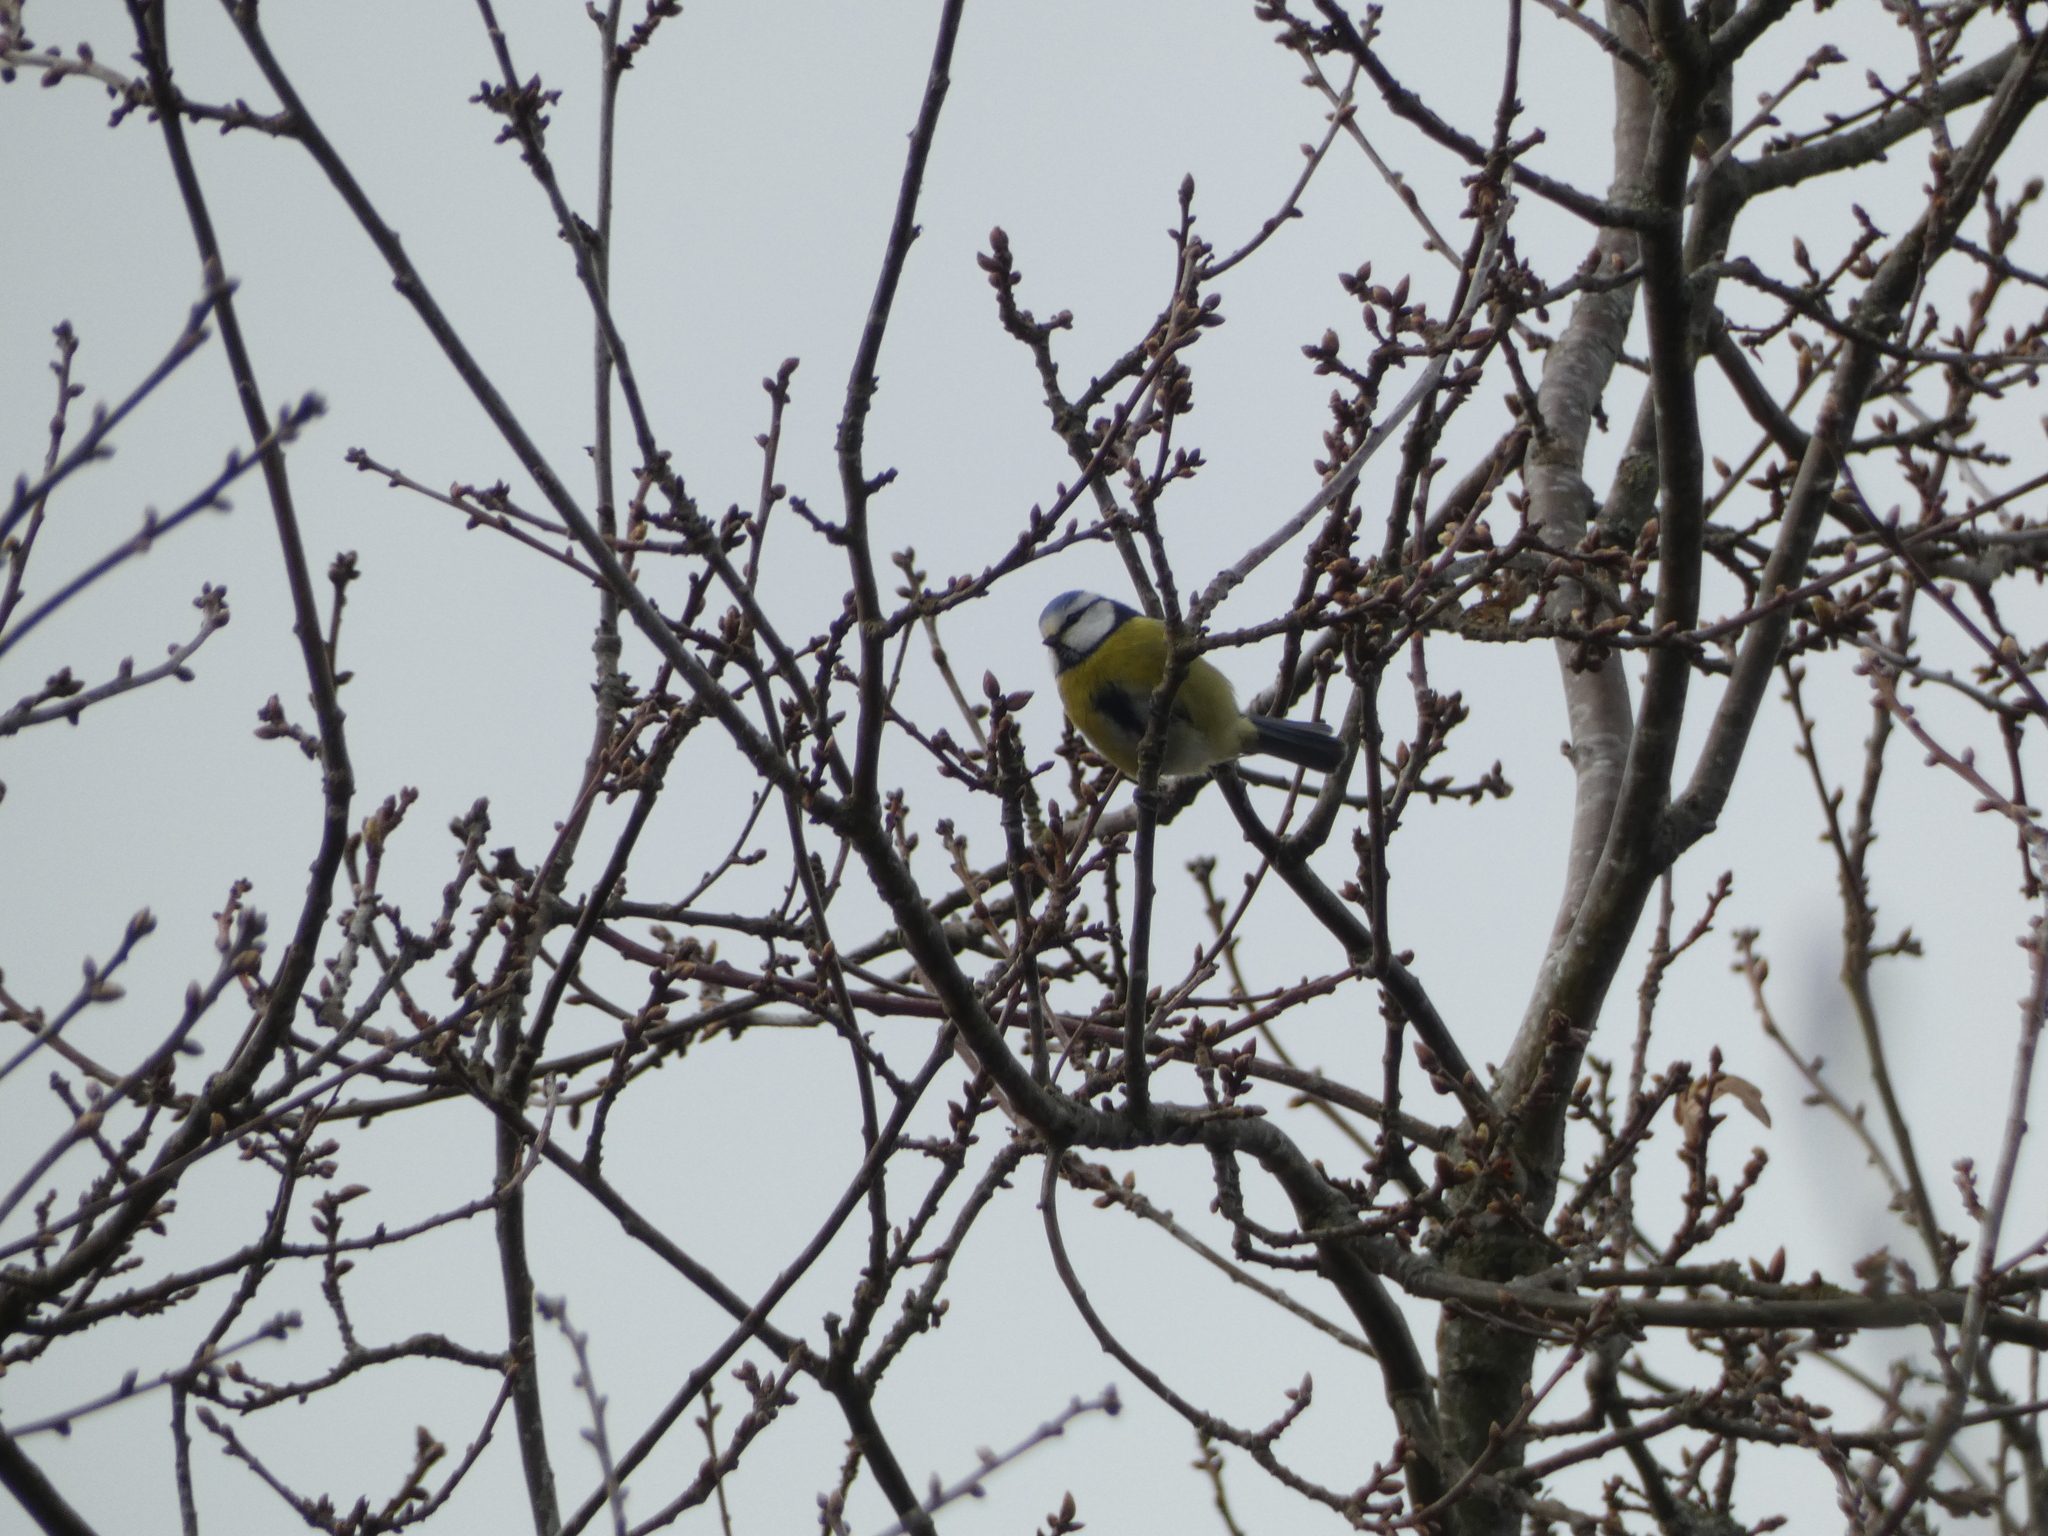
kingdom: Animalia
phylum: Chordata
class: Aves
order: Passeriformes
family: Paridae
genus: Cyanistes
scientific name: Cyanistes caeruleus
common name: Eurasian blue tit
